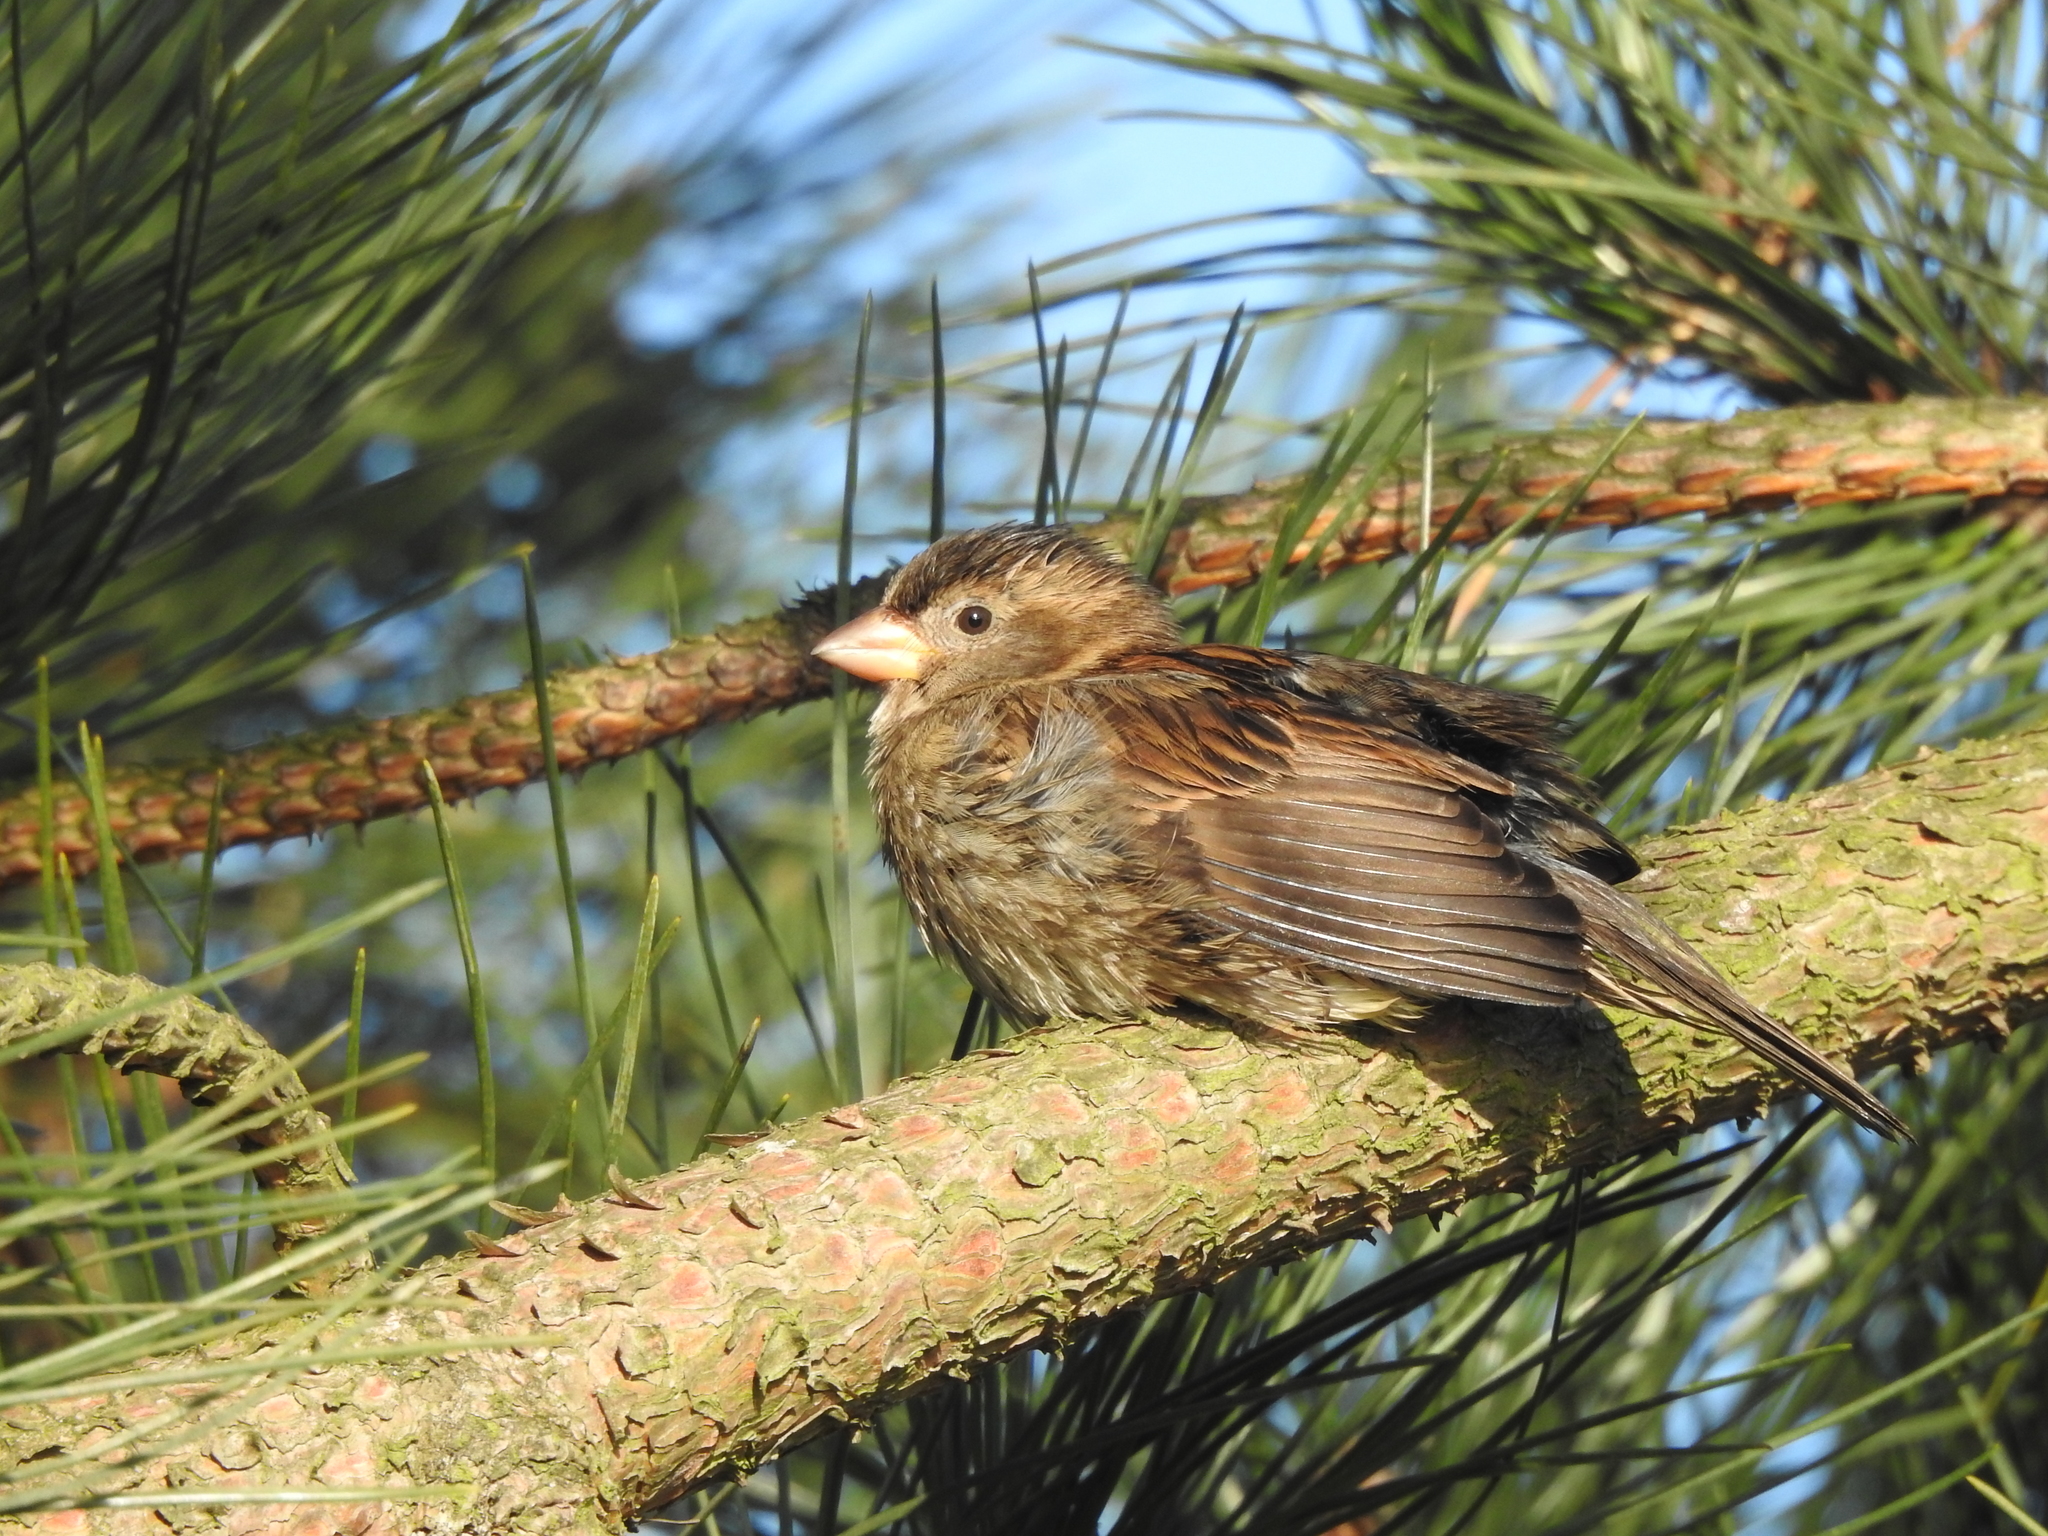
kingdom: Animalia
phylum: Chordata
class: Aves
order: Passeriformes
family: Passeridae
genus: Passer
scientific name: Passer domesticus
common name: House sparrow
